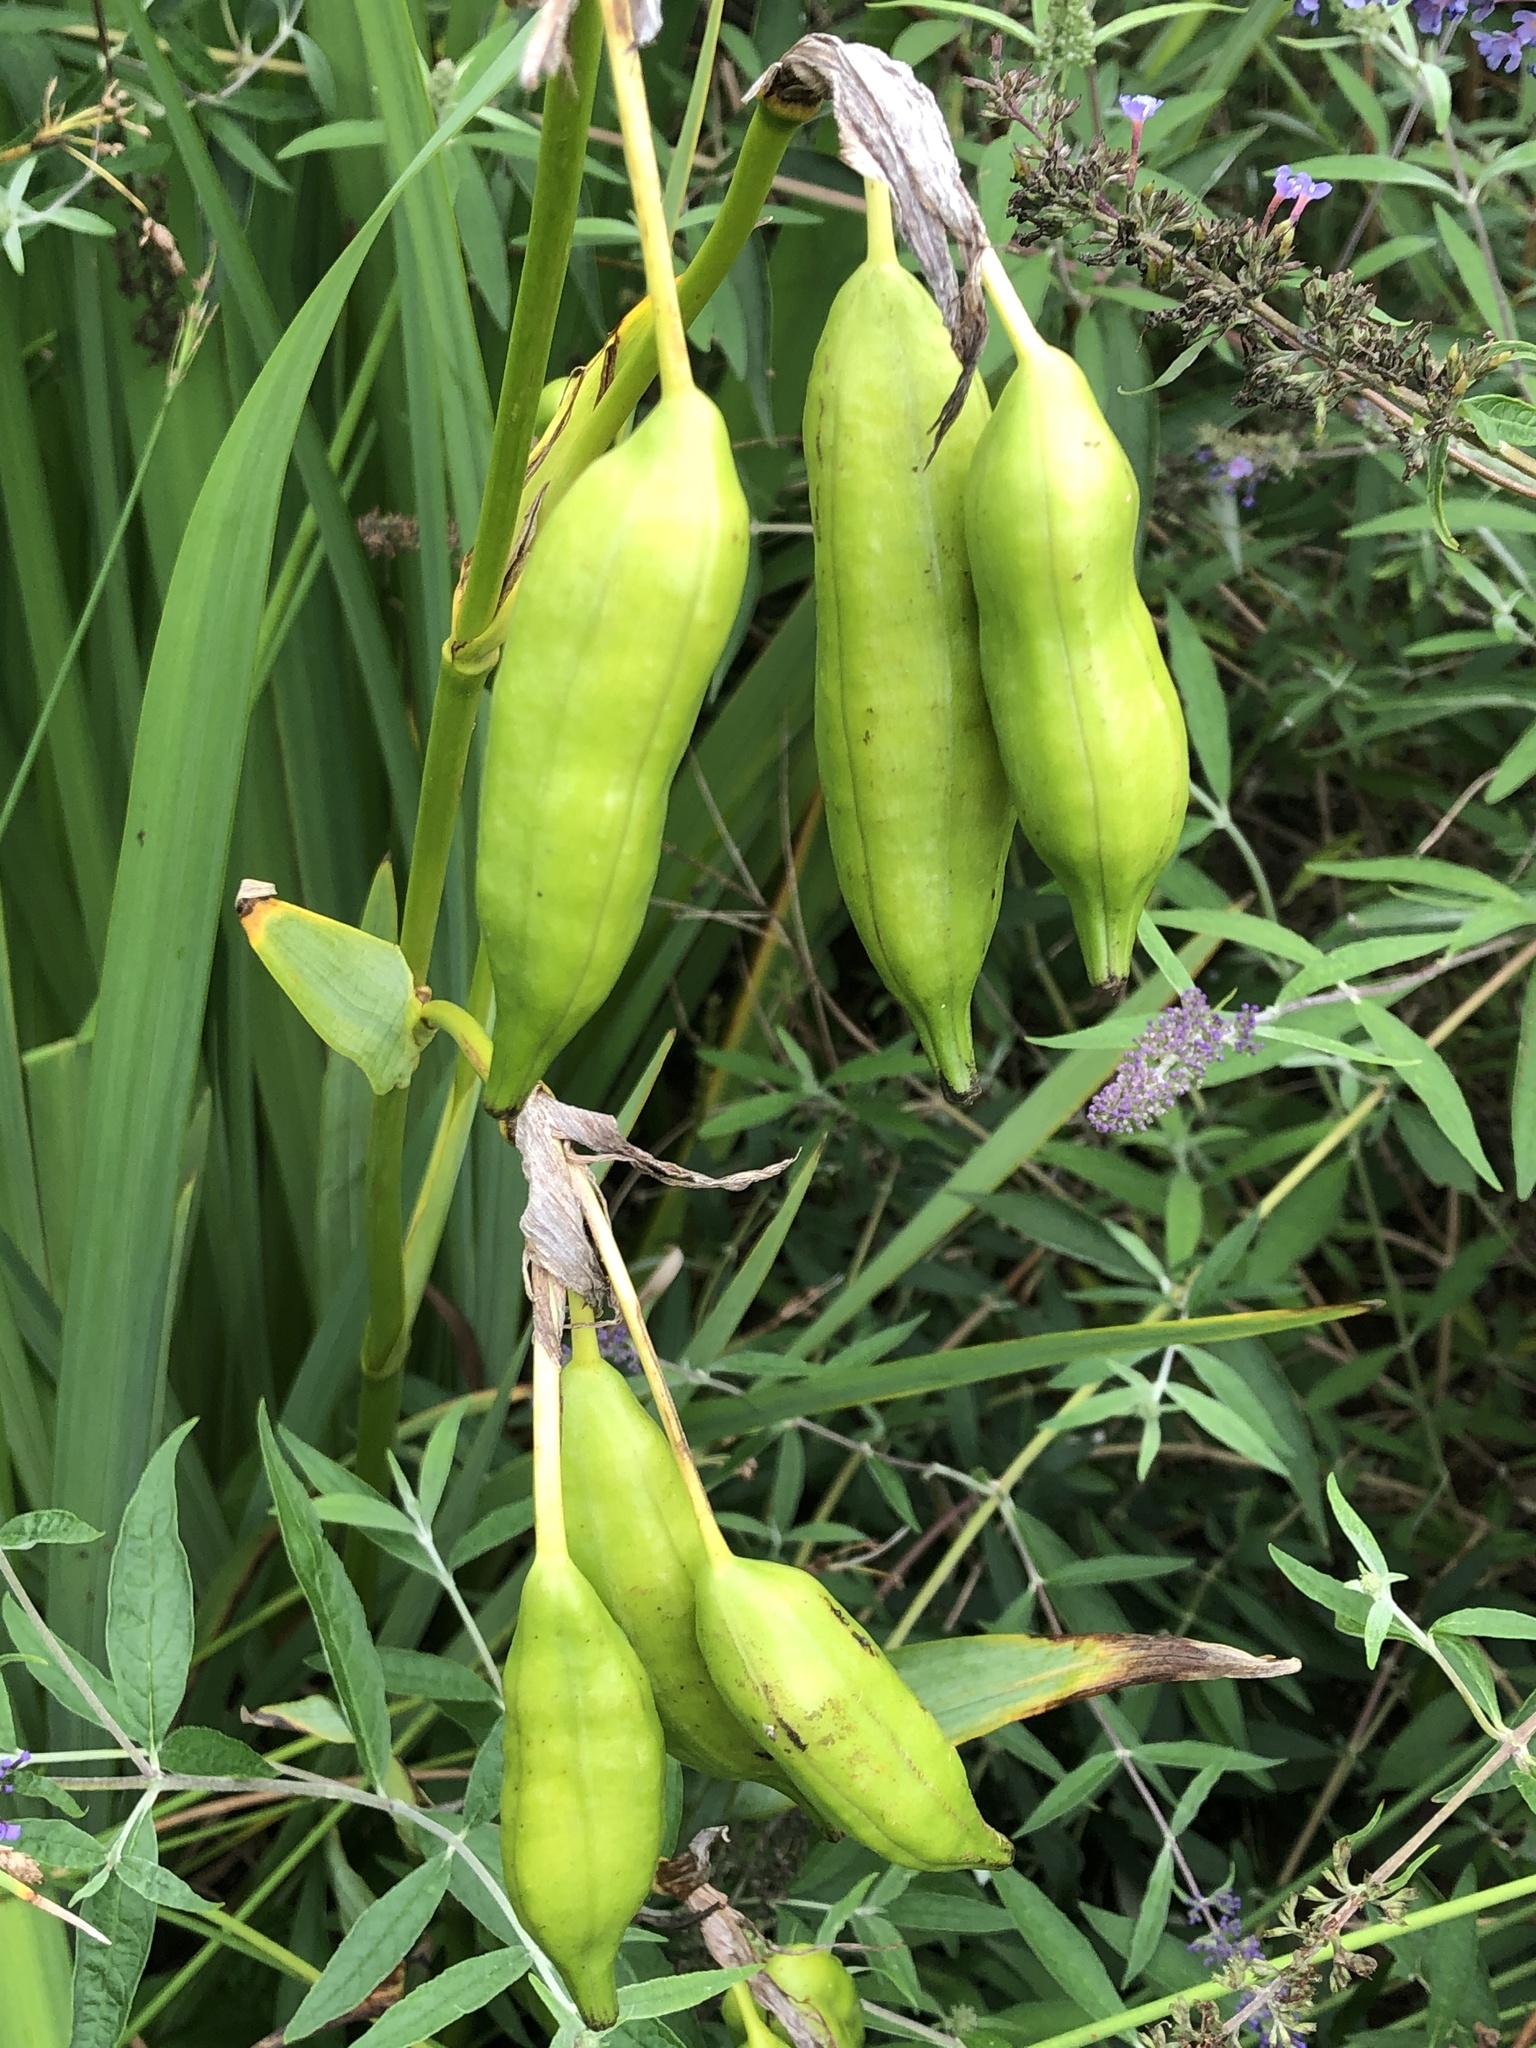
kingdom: Plantae
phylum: Tracheophyta
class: Liliopsida
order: Asparagales
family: Iridaceae
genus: Iris
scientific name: Iris pseudacorus
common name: Yellow flag
